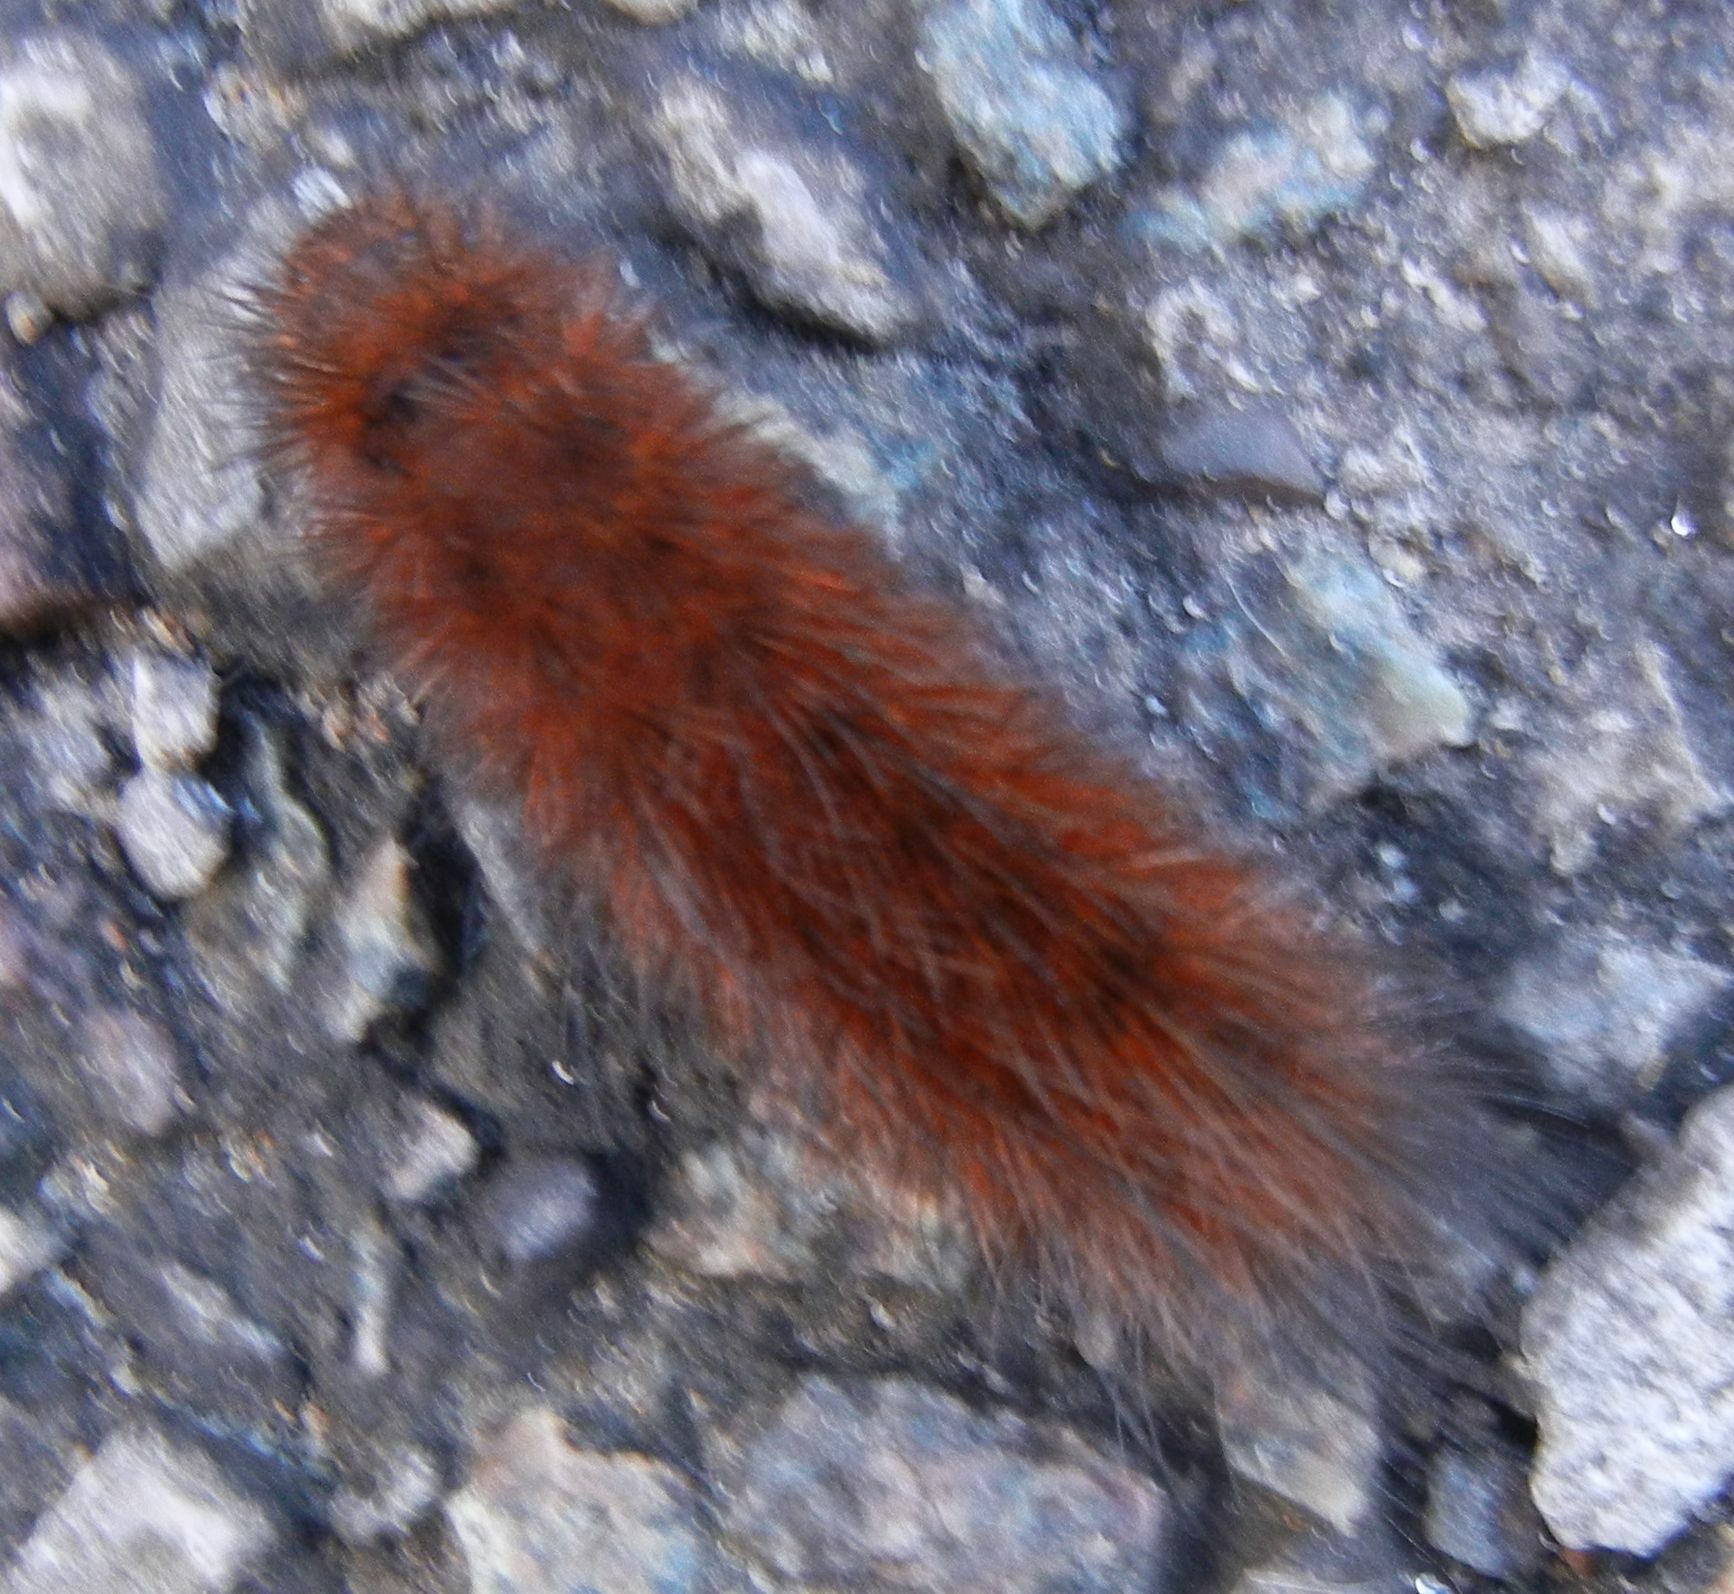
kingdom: Animalia
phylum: Arthropoda
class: Insecta
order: Lepidoptera
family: Erebidae
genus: Phragmatobia
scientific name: Phragmatobia fuliginosa
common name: Ruby tiger
